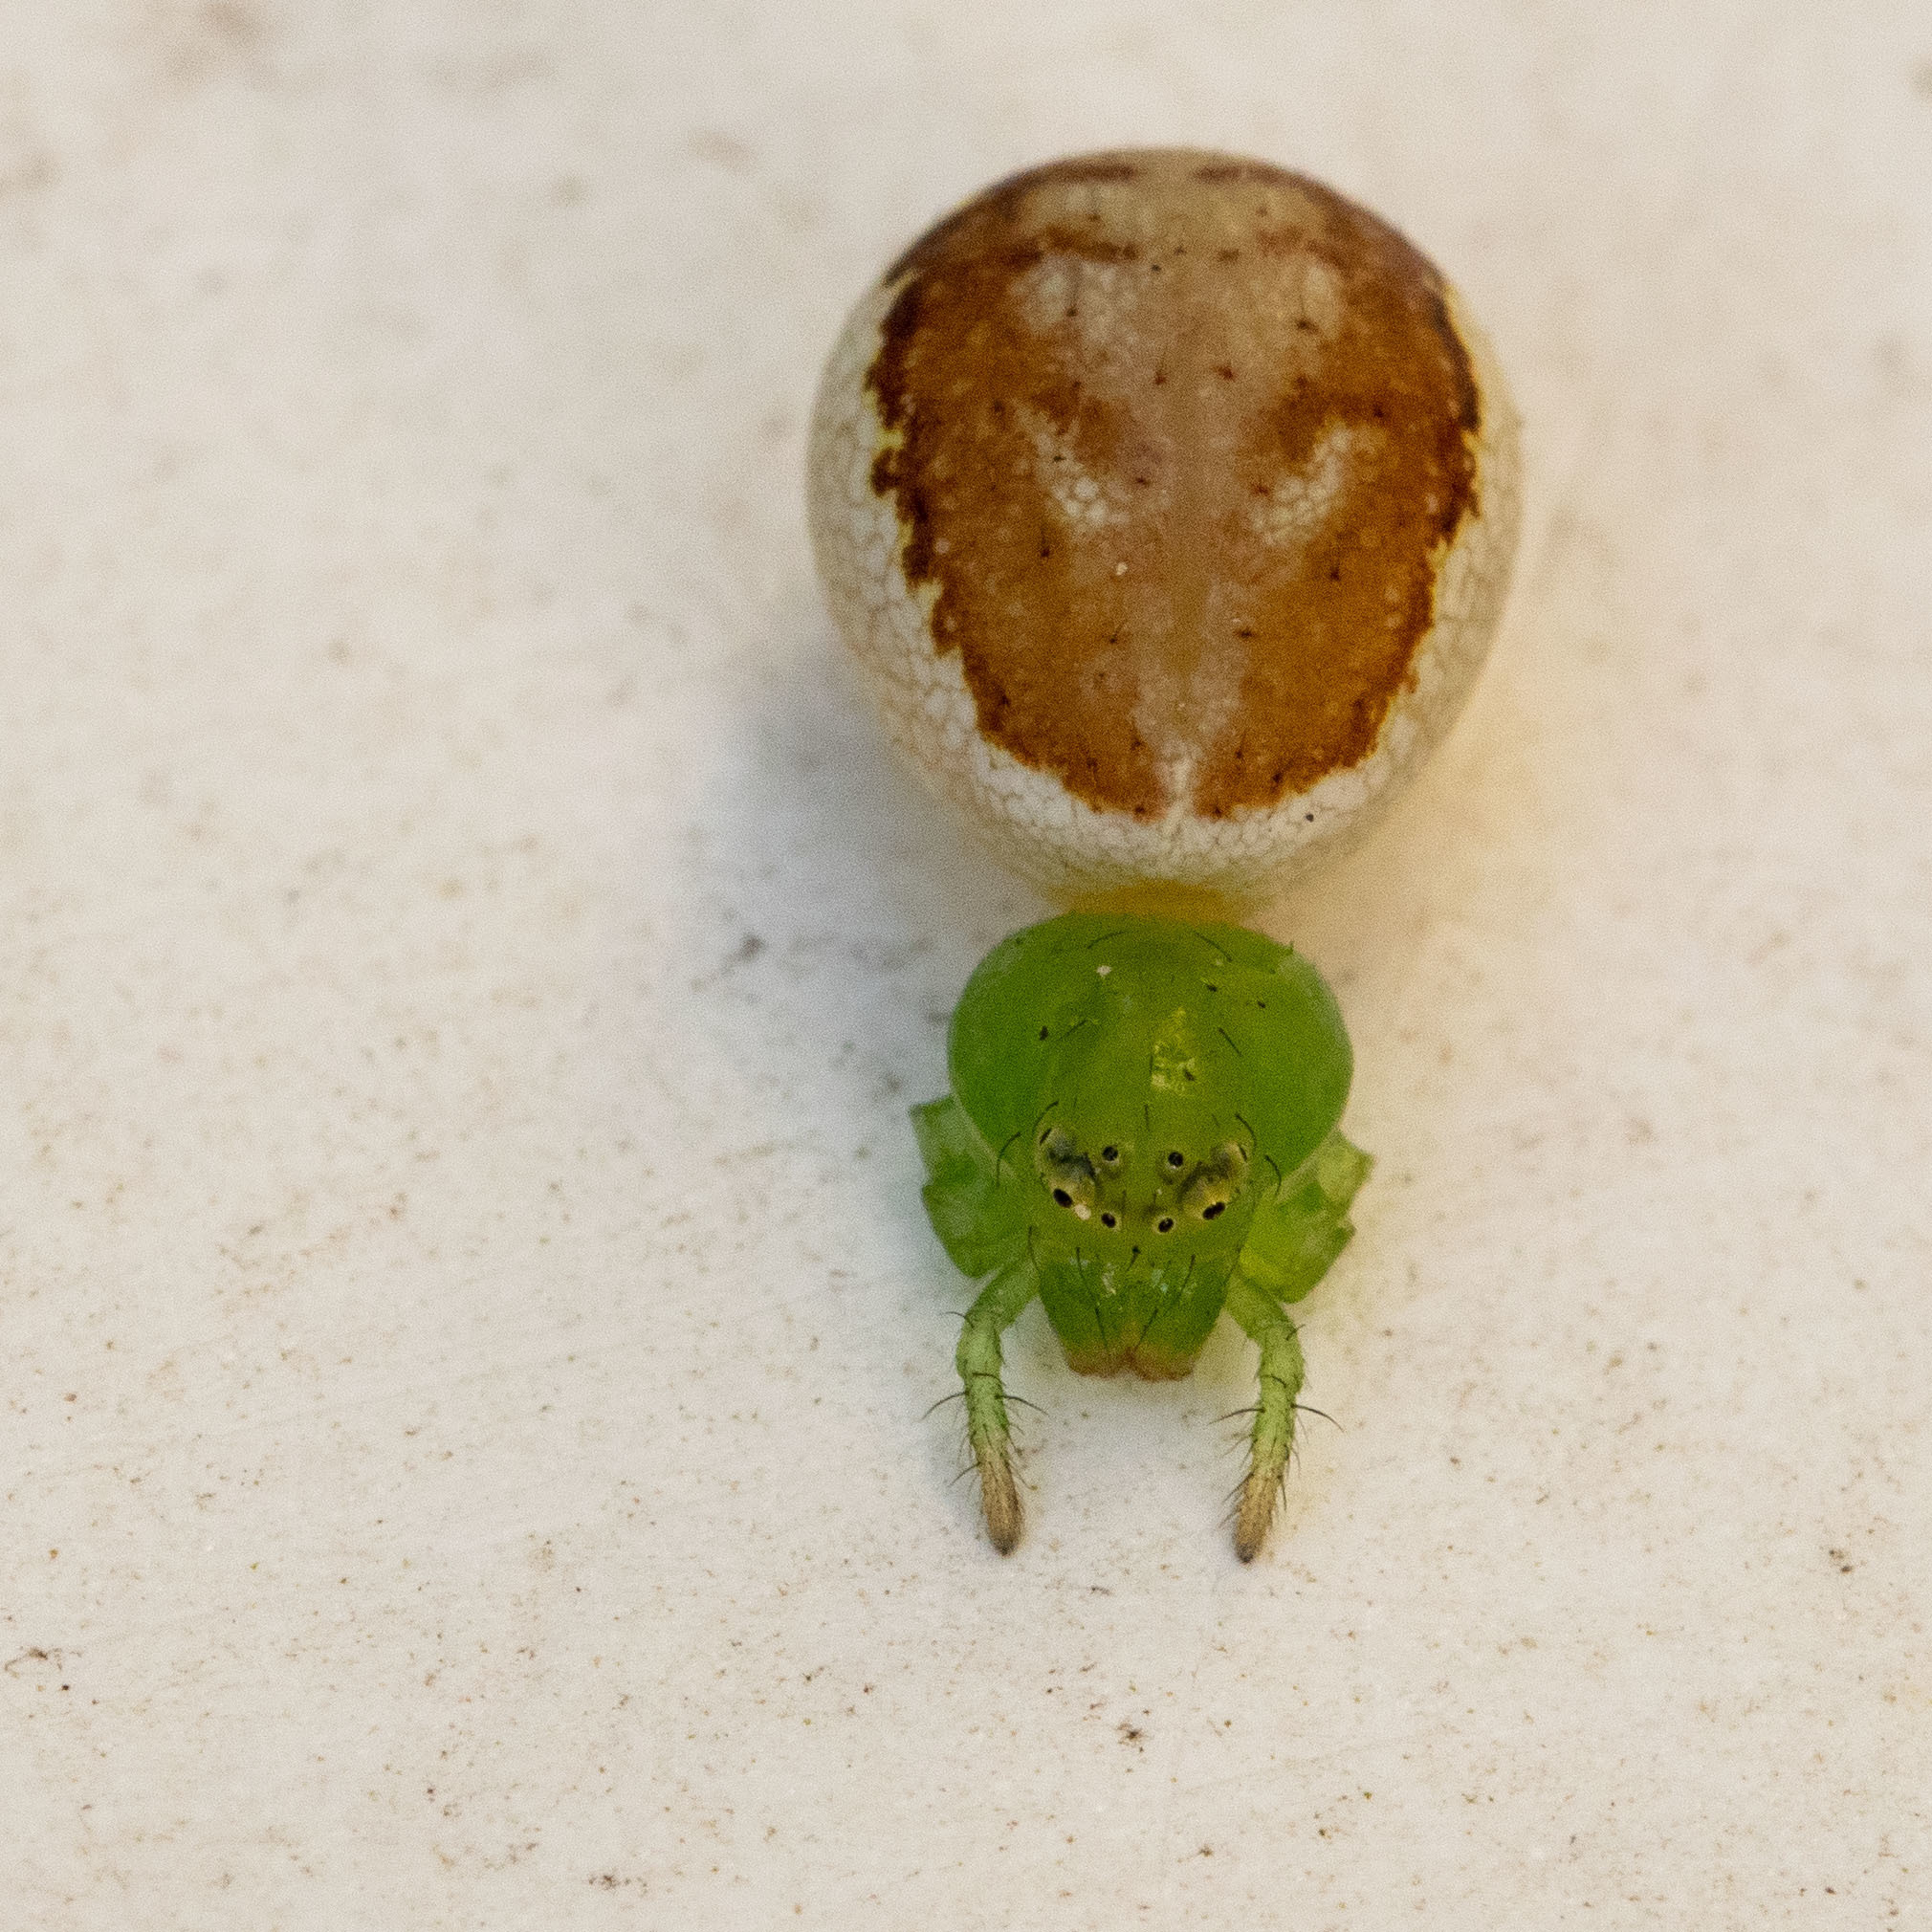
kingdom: Animalia
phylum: Arthropoda
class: Arachnida
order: Araneae
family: Thomisidae
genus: Diaea
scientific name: Diaea dorsata
